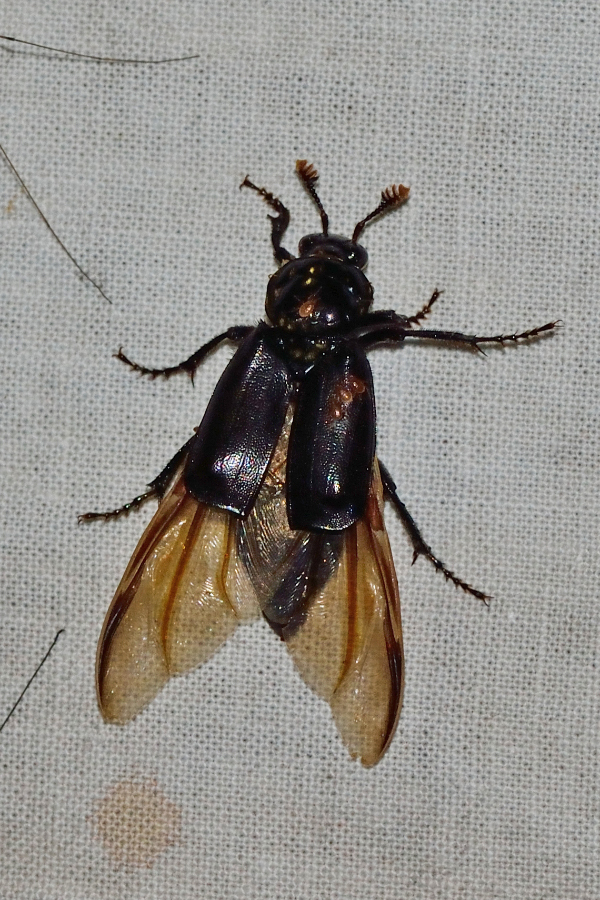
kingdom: Animalia
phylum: Arthropoda
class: Insecta
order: Coleoptera
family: Staphylinidae
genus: Nicrophorus
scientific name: Nicrophorus humator
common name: Black sexton beetle
